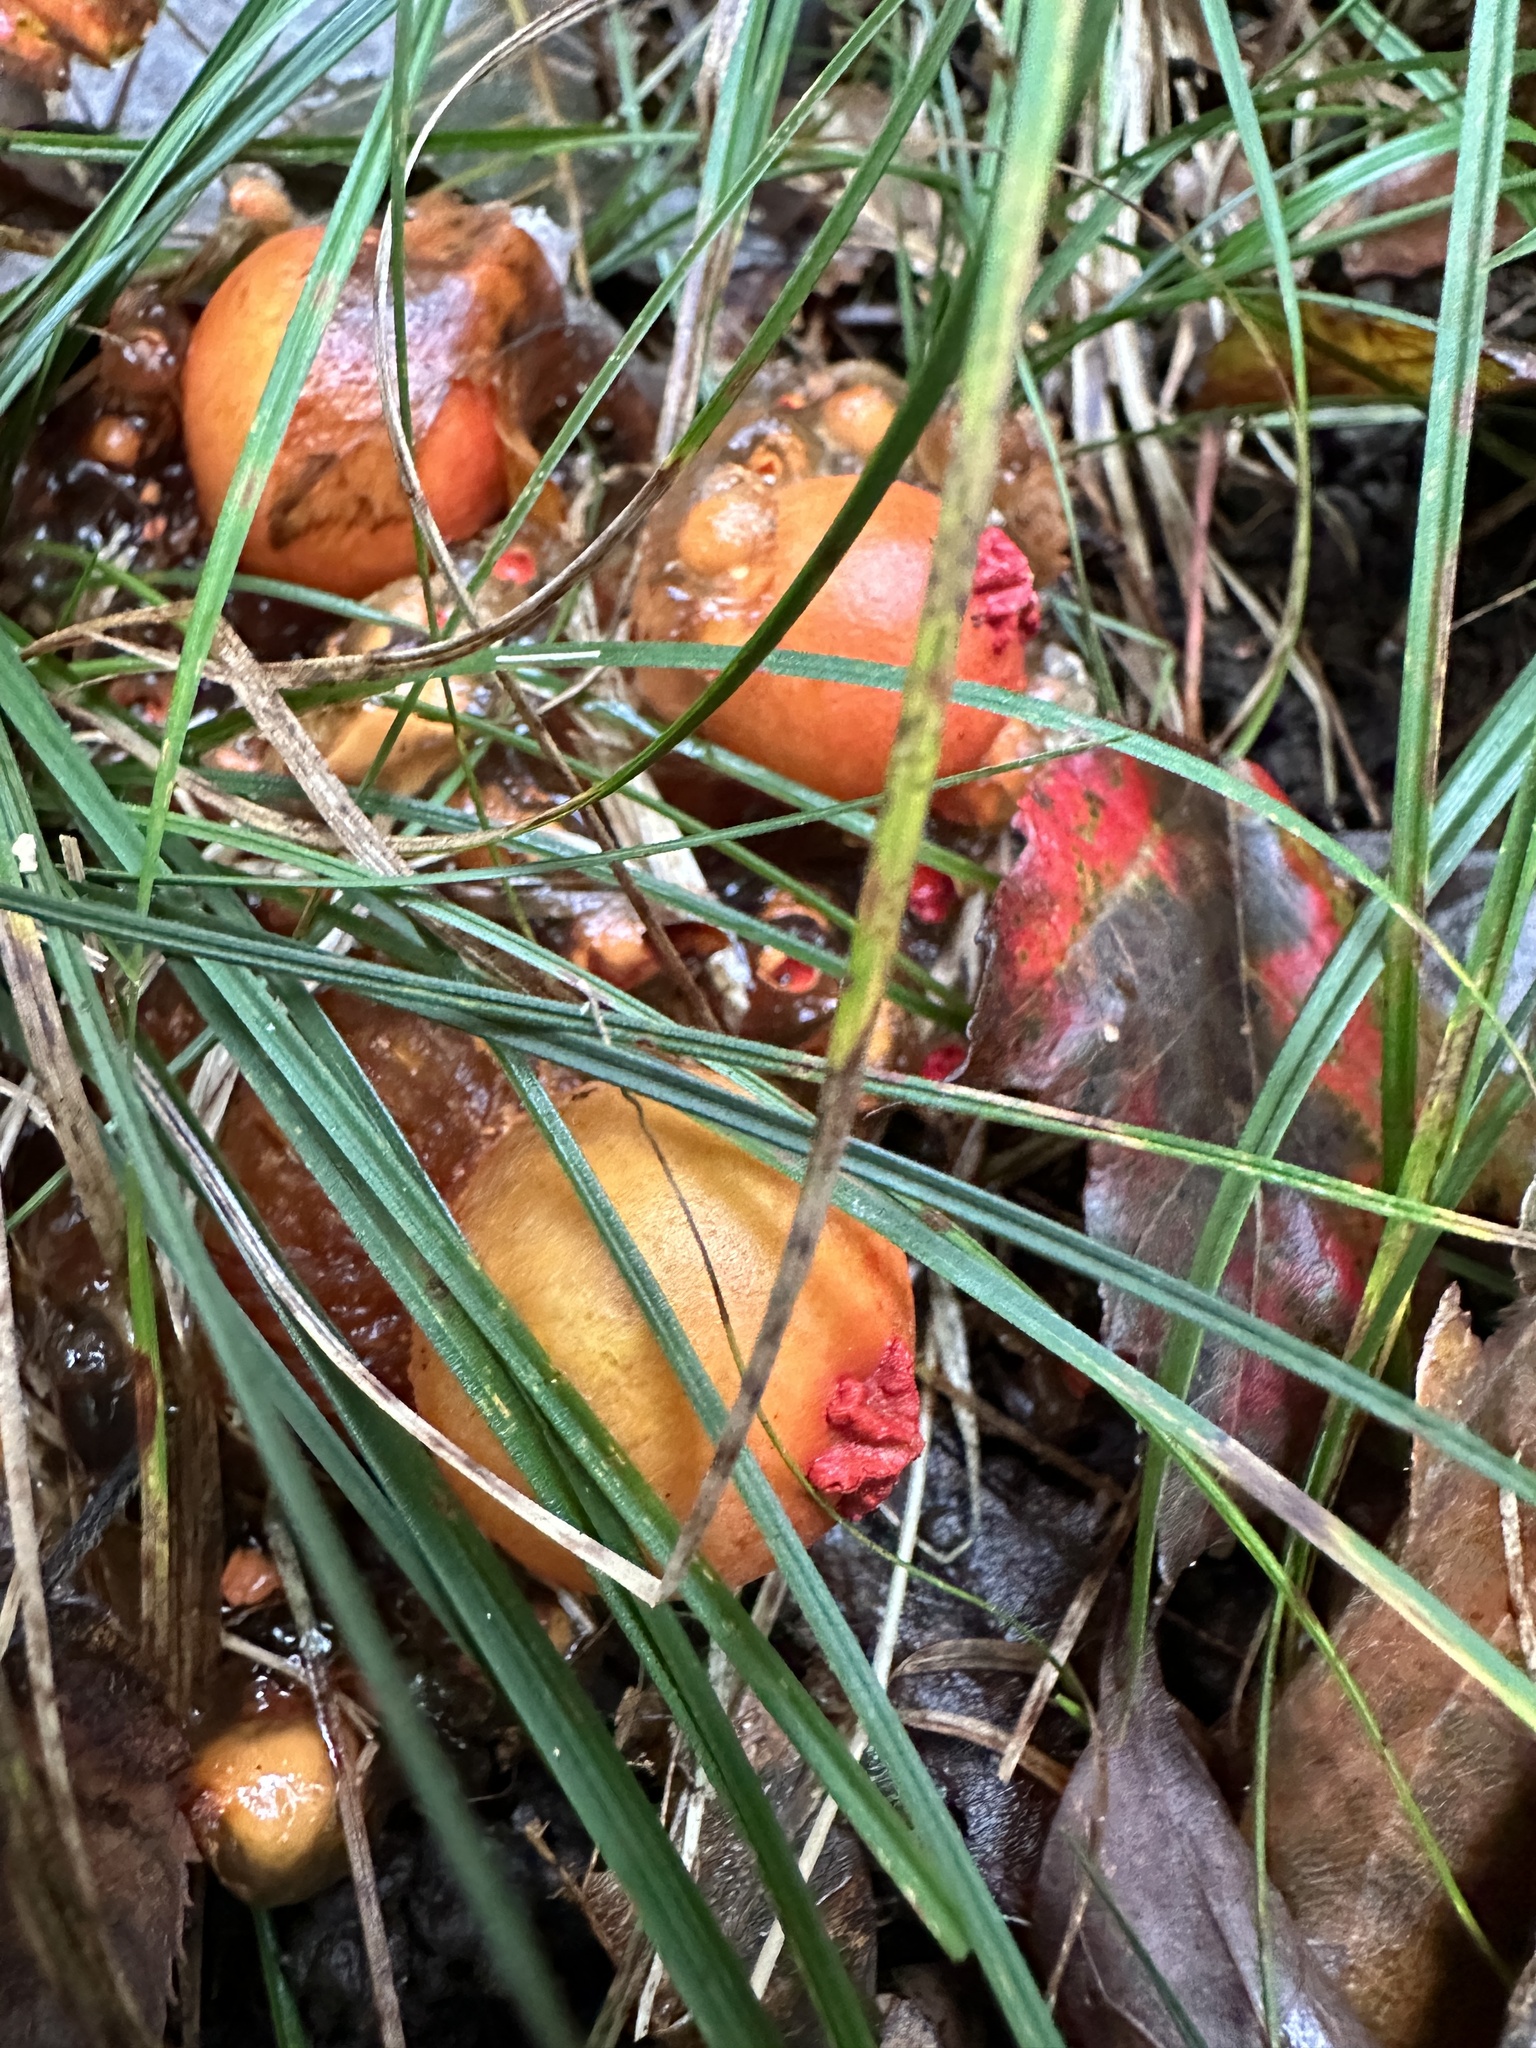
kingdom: Fungi
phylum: Basidiomycota
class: Agaricomycetes
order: Boletales
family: Calostomataceae
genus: Calostoma
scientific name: Calostoma cinnabarinum
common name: Stalked puffball-in-aspic
